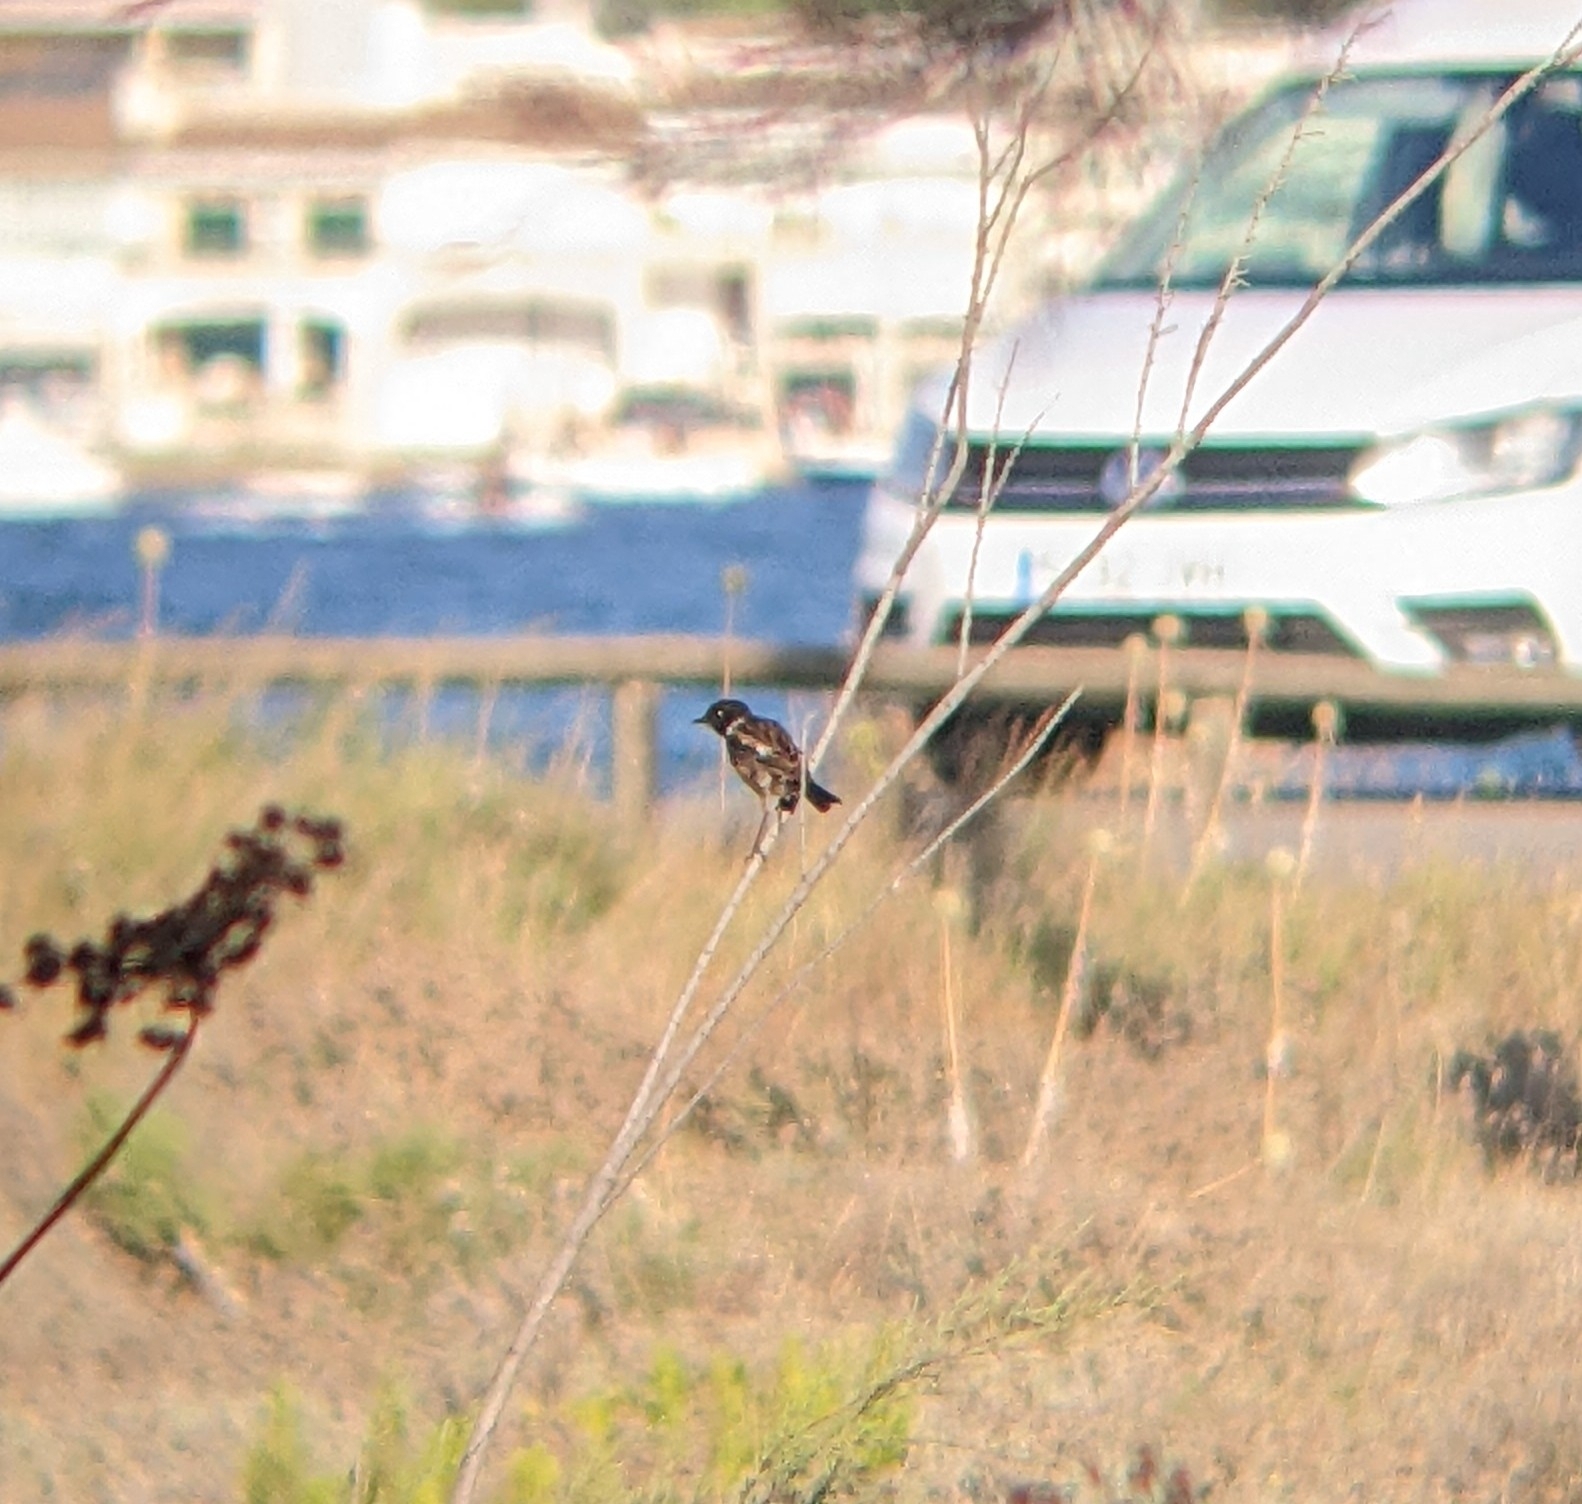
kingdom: Animalia
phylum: Chordata
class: Aves
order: Passeriformes
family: Muscicapidae
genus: Saxicola
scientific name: Saxicola rubicola
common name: European stonechat
